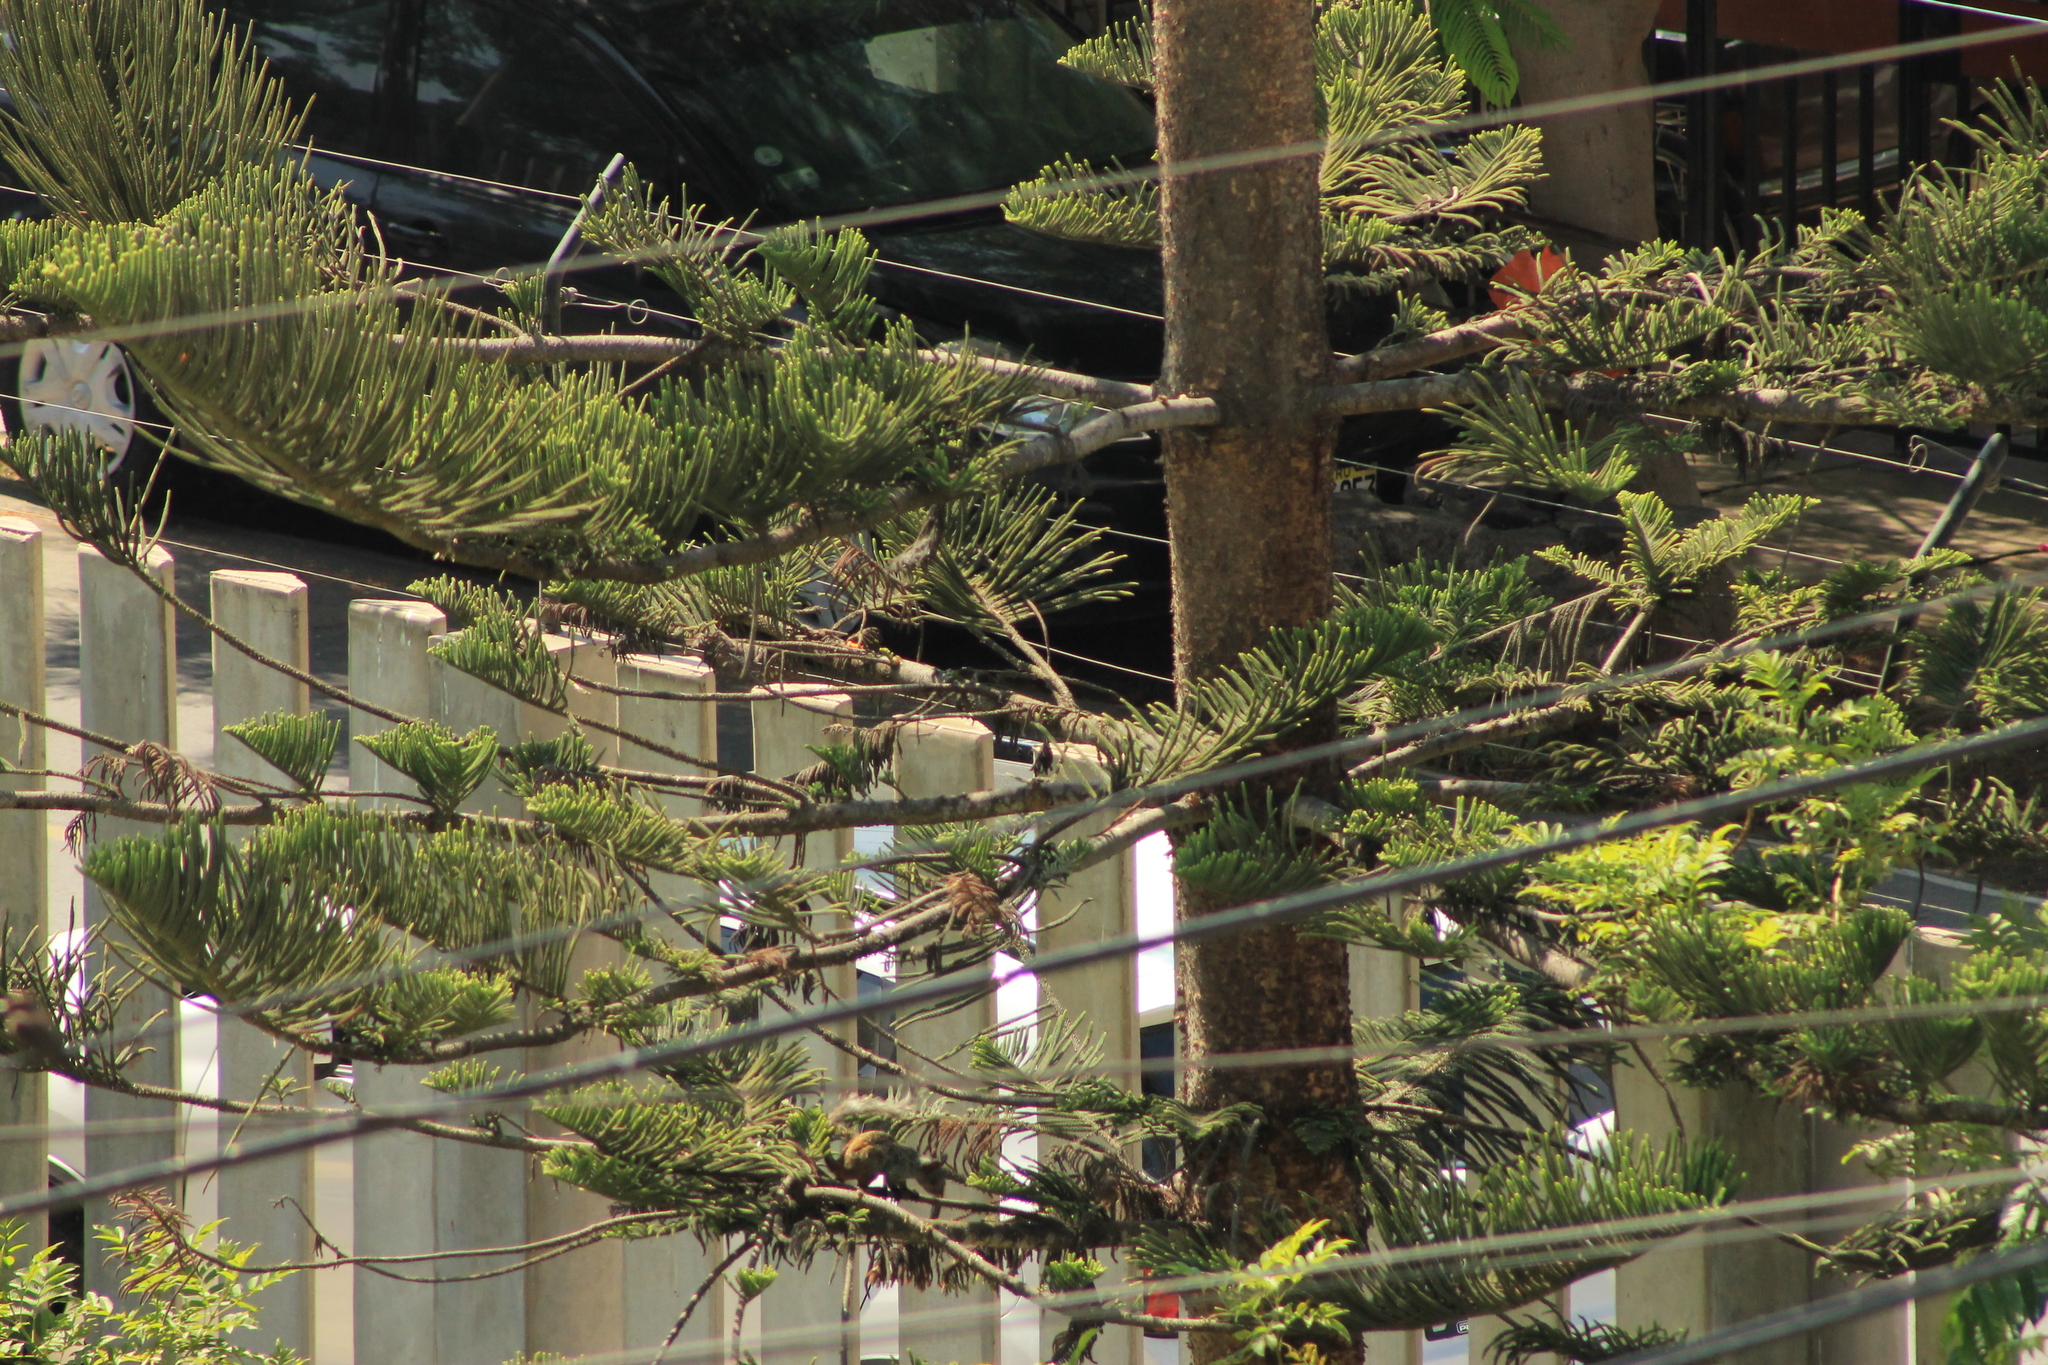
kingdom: Animalia
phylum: Chordata
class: Mammalia
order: Rodentia
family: Sciuridae
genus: Sciurus
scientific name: Sciurus stramineus
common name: Guayaquil squirrel
